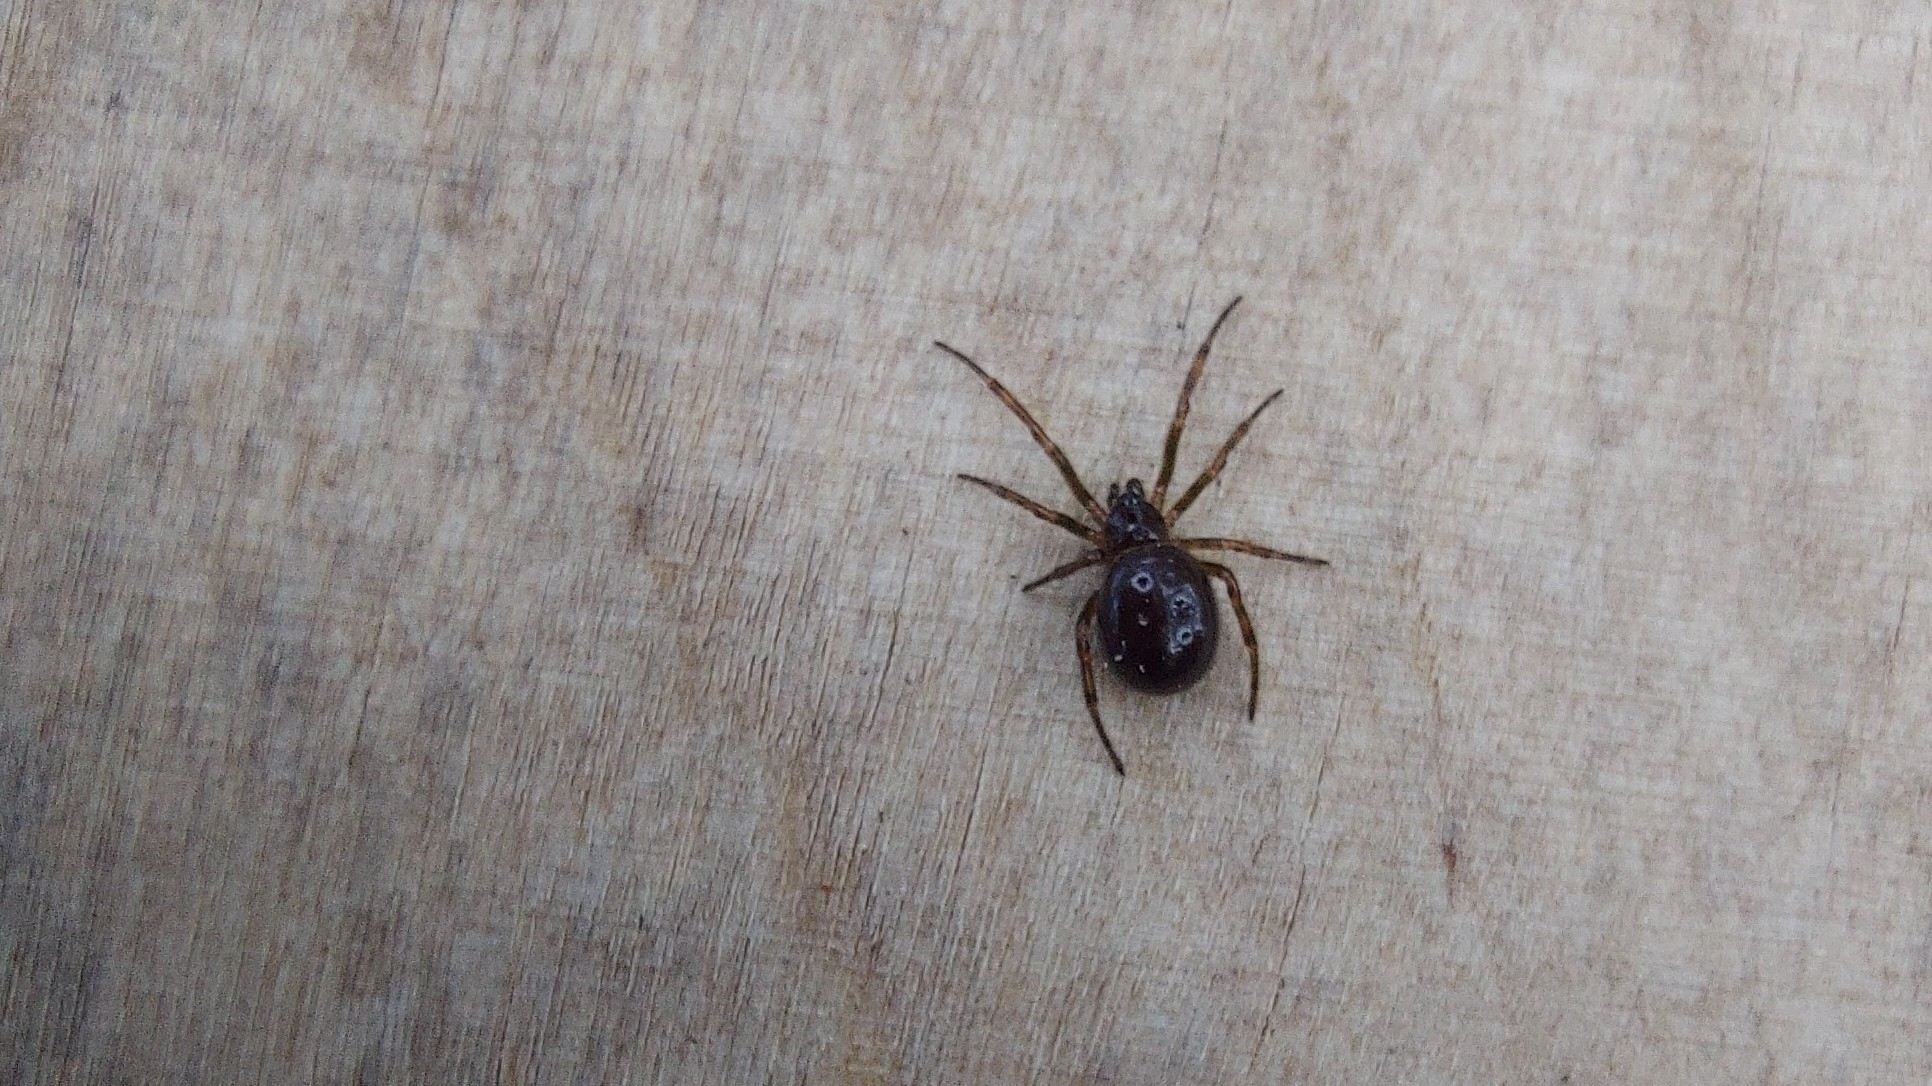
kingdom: Animalia
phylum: Arthropoda
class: Arachnida
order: Araneae
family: Theridiidae
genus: Steatoda
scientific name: Steatoda bipunctata
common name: False widow
